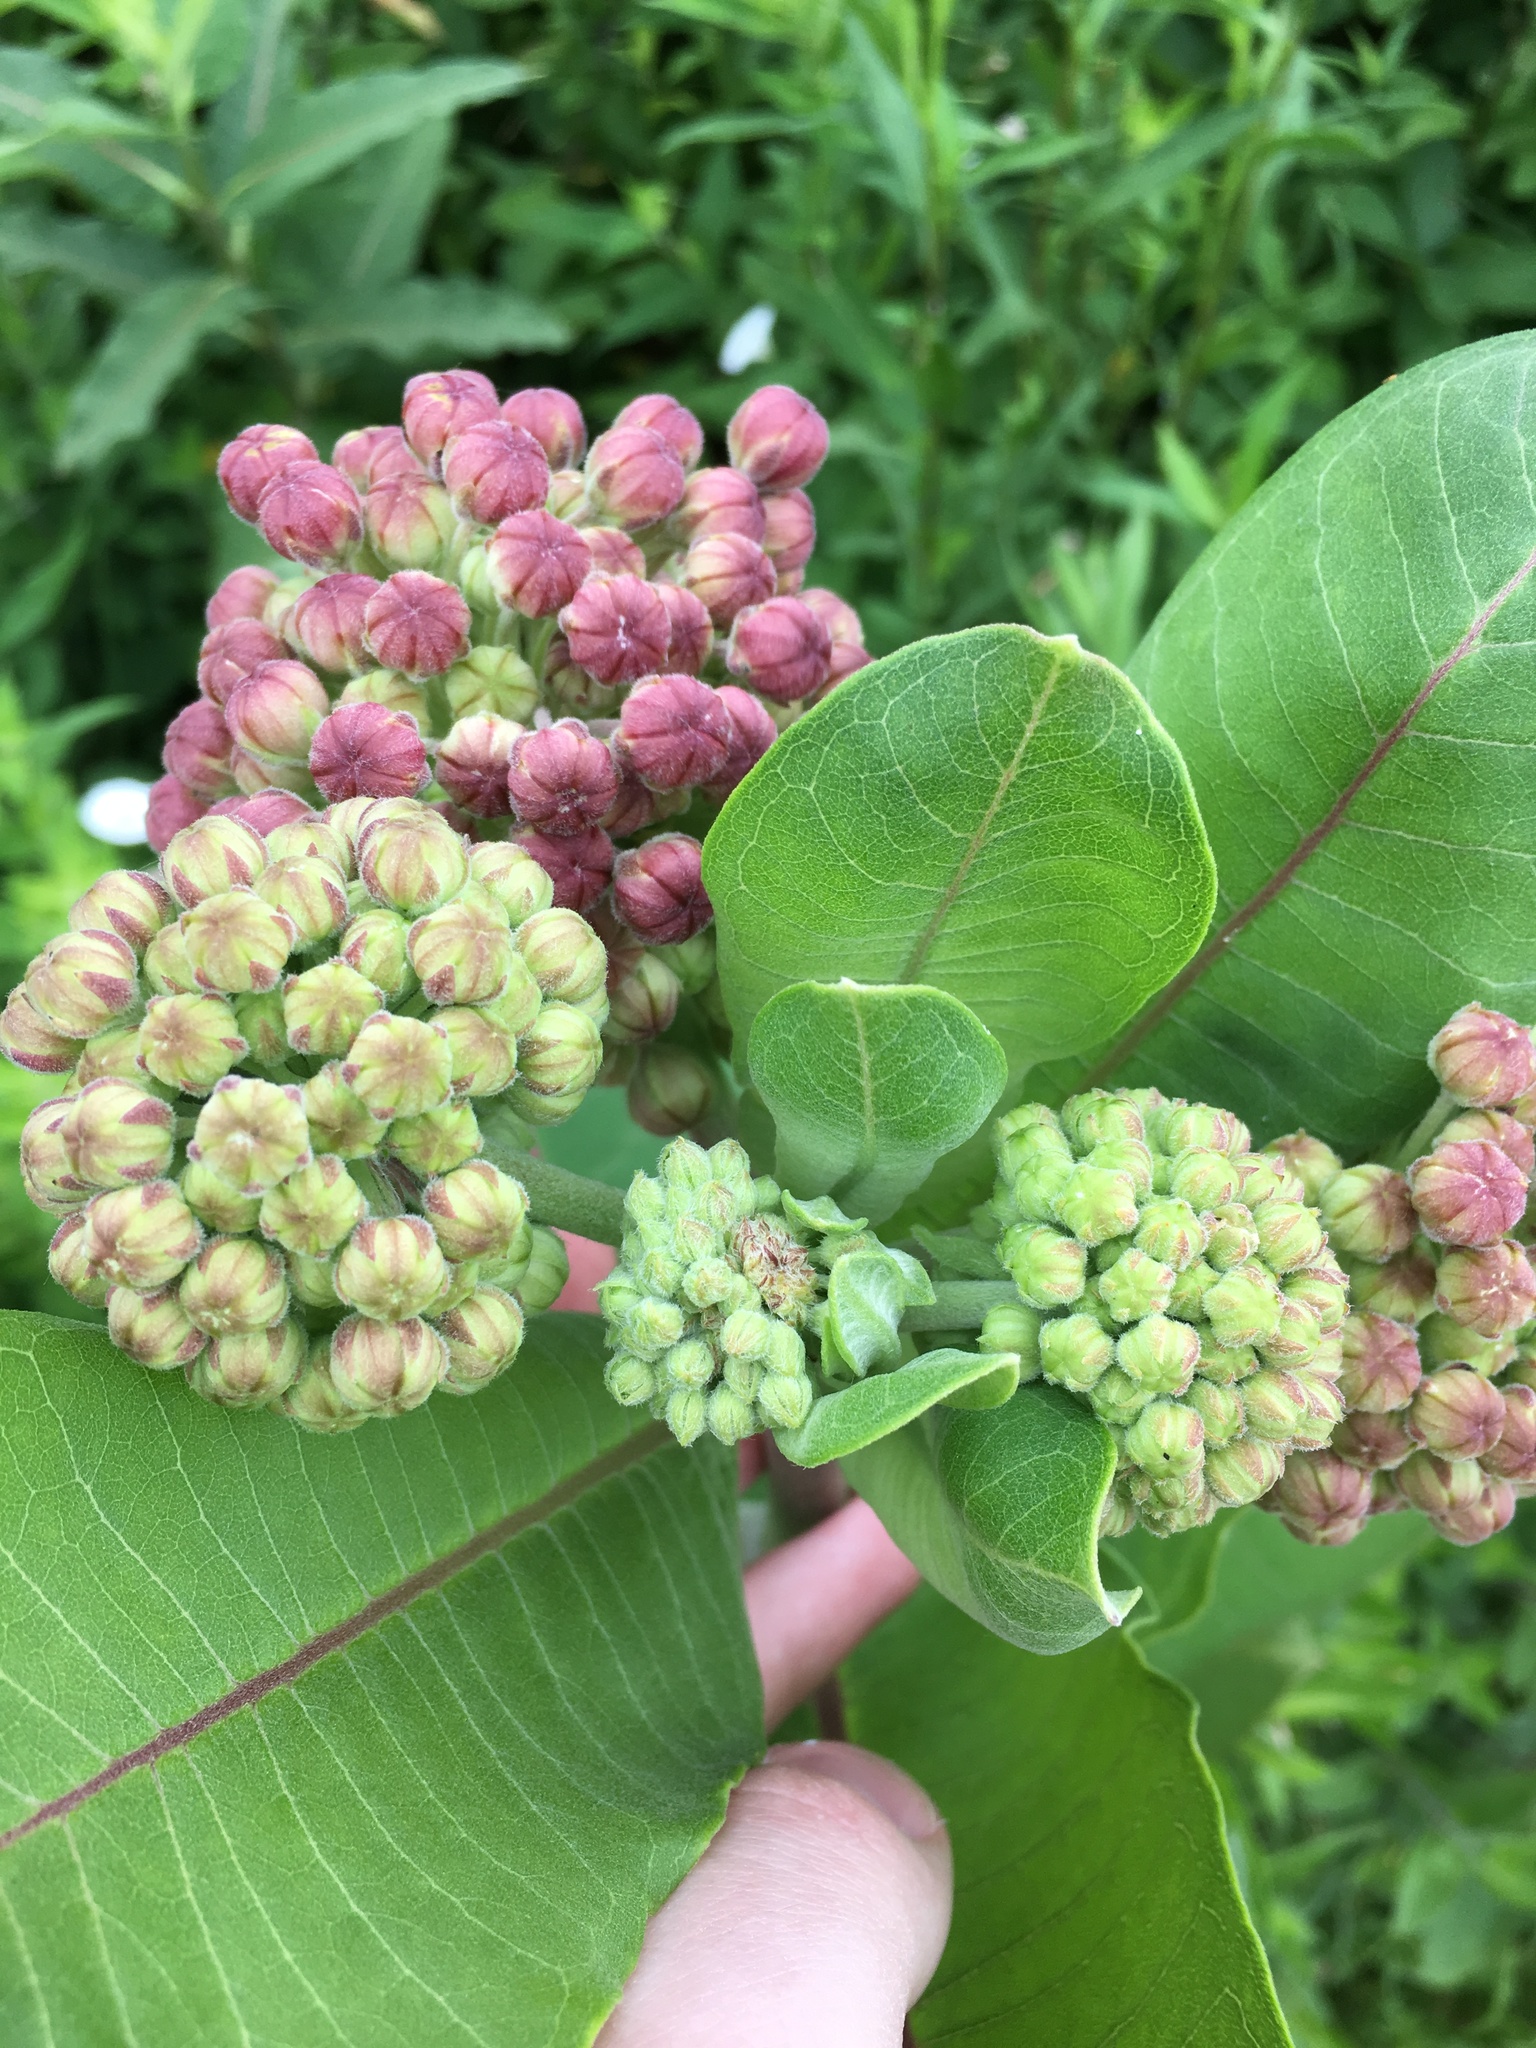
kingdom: Plantae
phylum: Tracheophyta
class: Magnoliopsida
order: Gentianales
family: Apocynaceae
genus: Asclepias
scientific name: Asclepias syriaca
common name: Common milkweed
